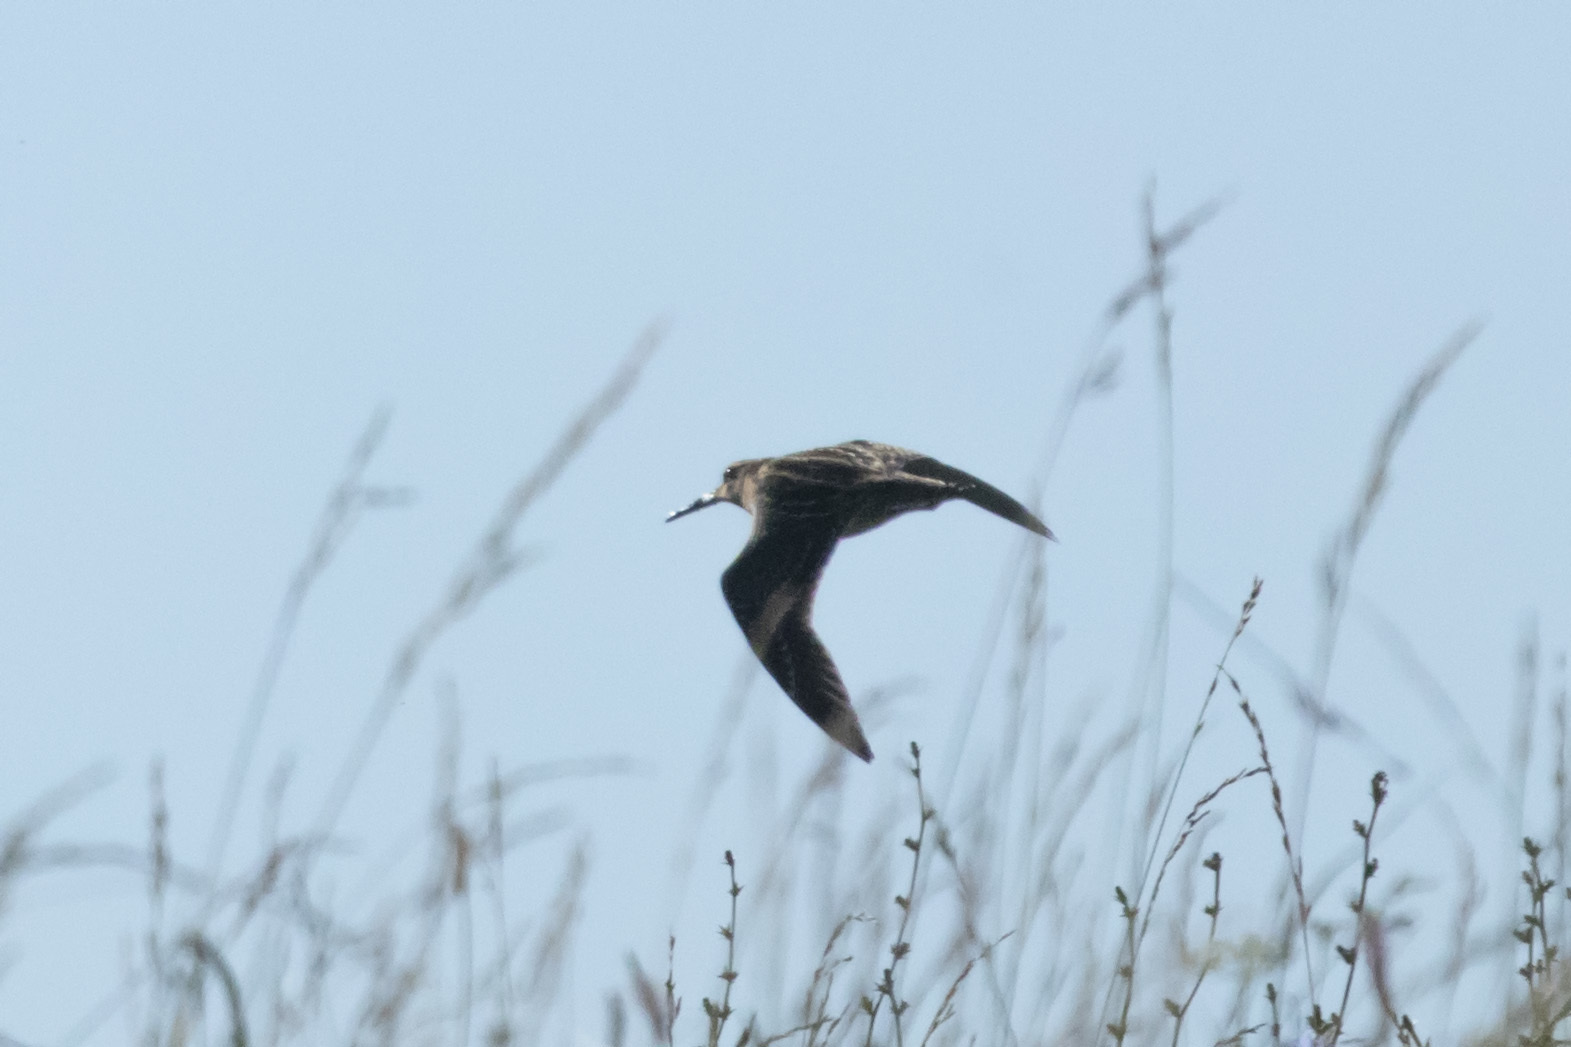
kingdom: Animalia
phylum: Chordata
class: Aves
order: Charadriiformes
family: Scolopacidae
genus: Gallinago
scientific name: Gallinago media
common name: Great snipe
